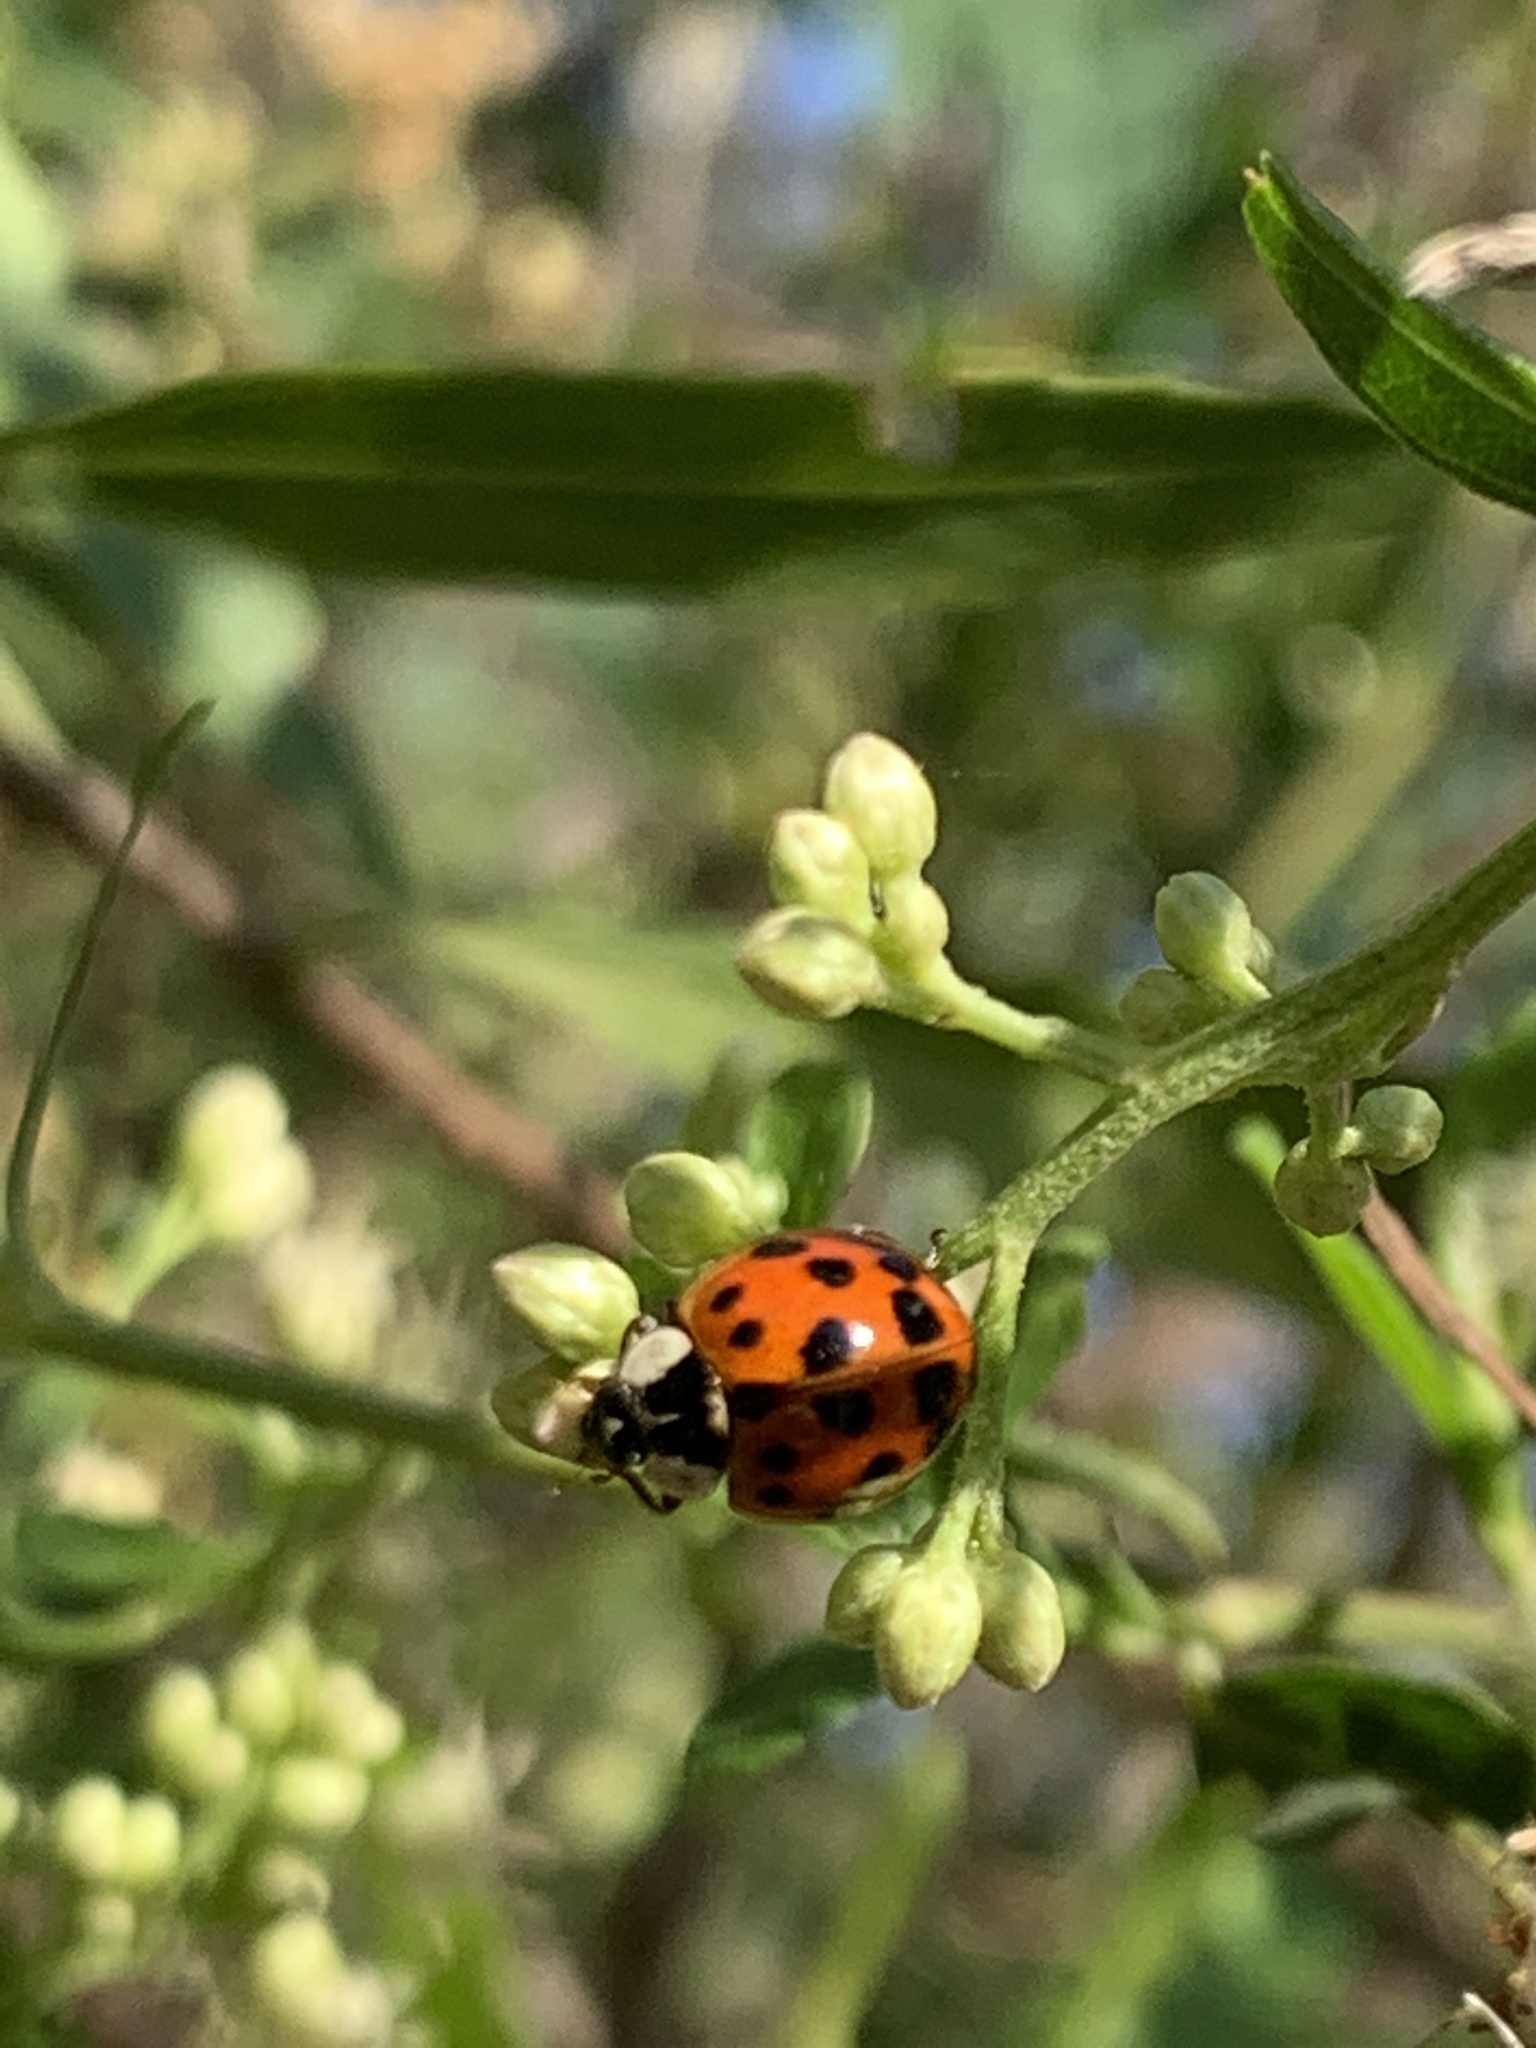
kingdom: Animalia
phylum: Arthropoda
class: Insecta
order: Coleoptera
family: Coccinellidae
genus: Harmonia
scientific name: Harmonia axyridis
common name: Harlequin ladybird
